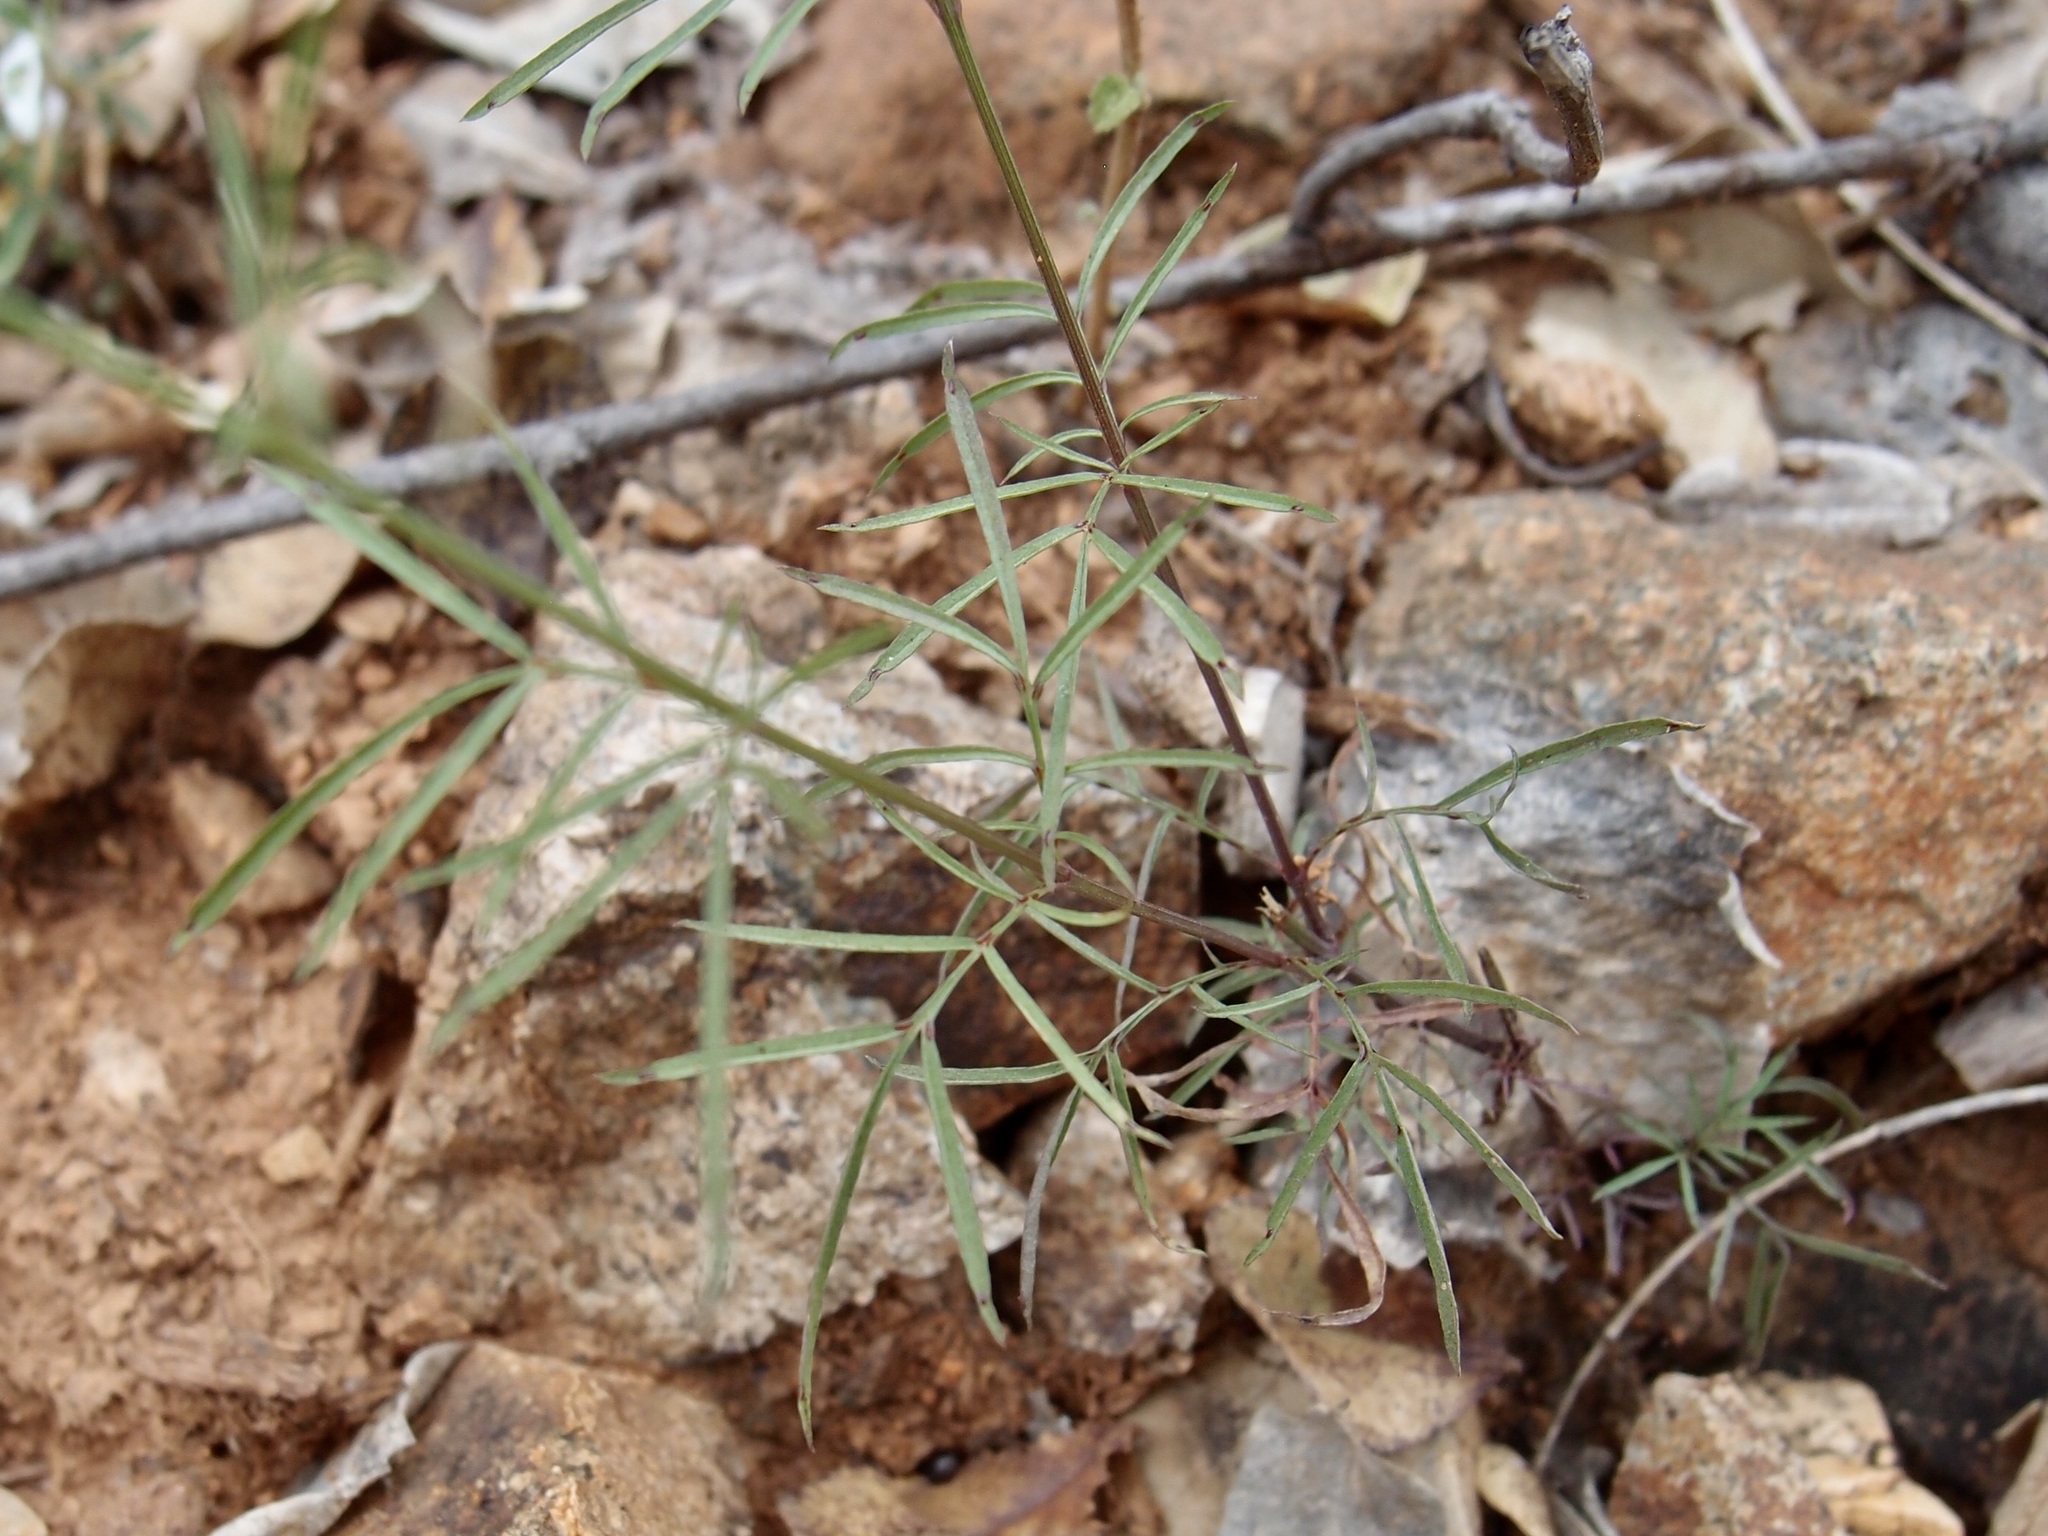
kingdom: Plantae
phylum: Tracheophyta
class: Magnoliopsida
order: Asterales
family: Asteraceae
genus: Adenophyllum
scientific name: Adenophyllum anomalum
